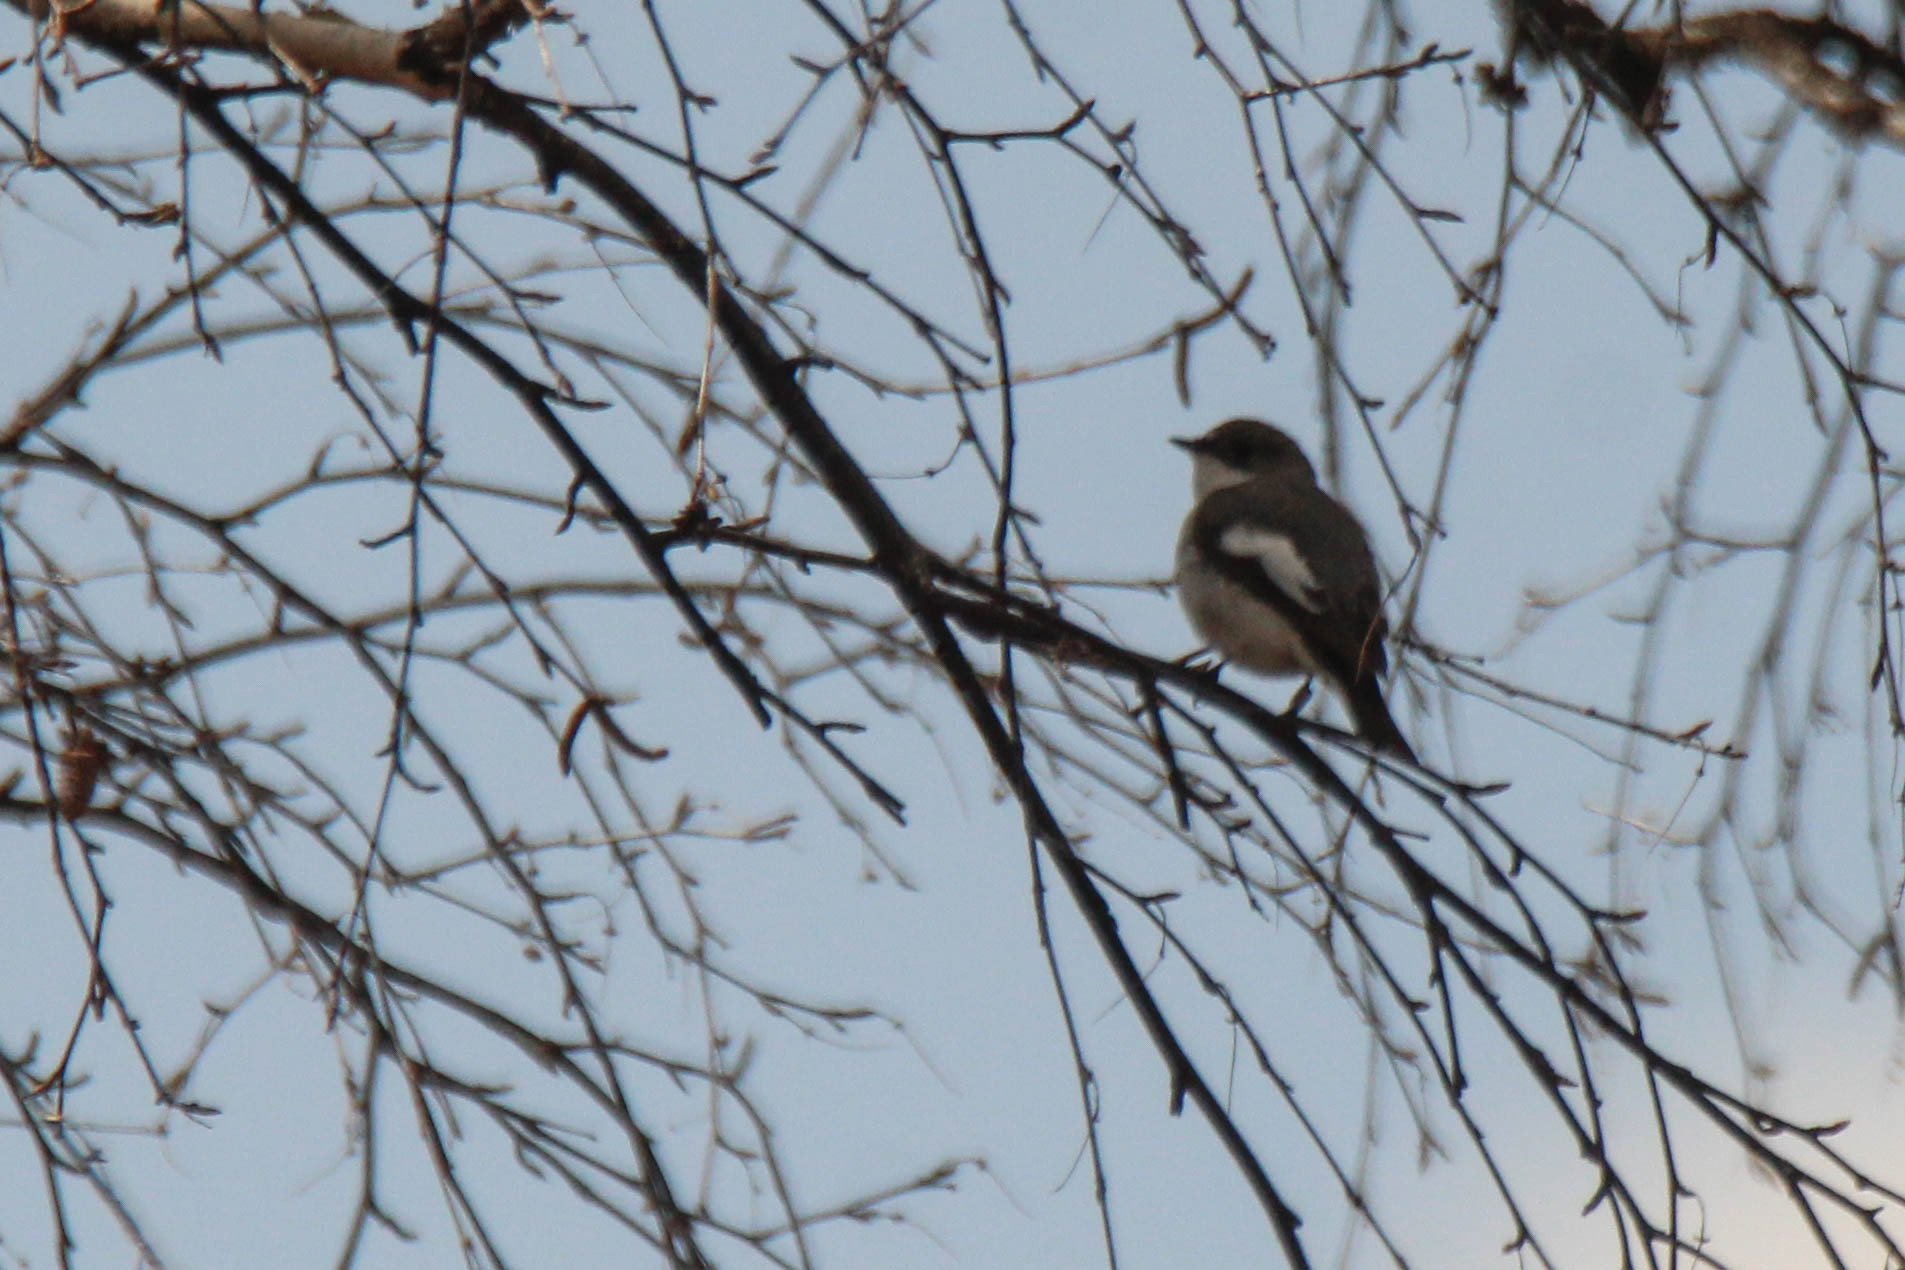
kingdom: Animalia
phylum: Chordata
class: Aves
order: Passeriformes
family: Muscicapidae
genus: Ficedula
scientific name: Ficedula hypoleuca
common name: European pied flycatcher
